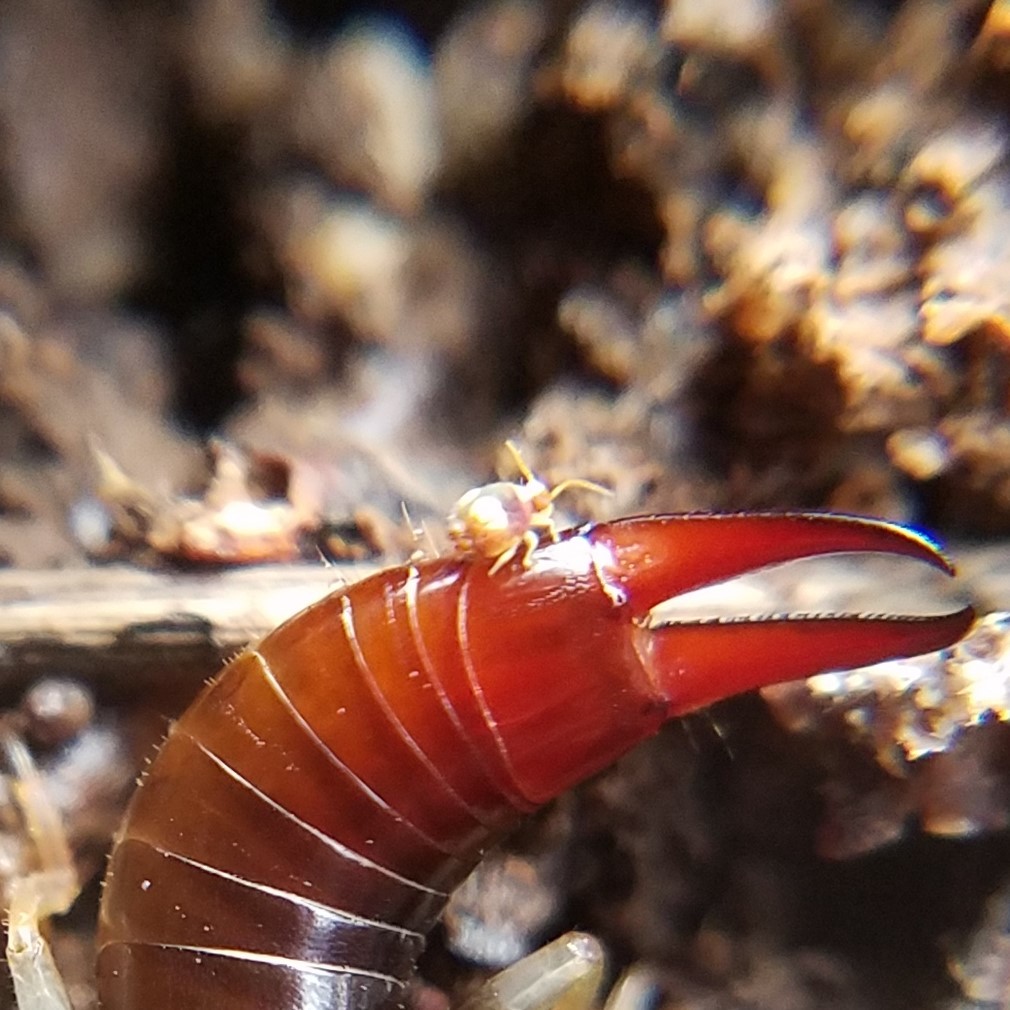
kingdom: Animalia
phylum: Arthropoda
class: Collembola
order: Symphypleona
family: Katiannidae
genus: Katiannina
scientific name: Katiannina macgillivrayi
